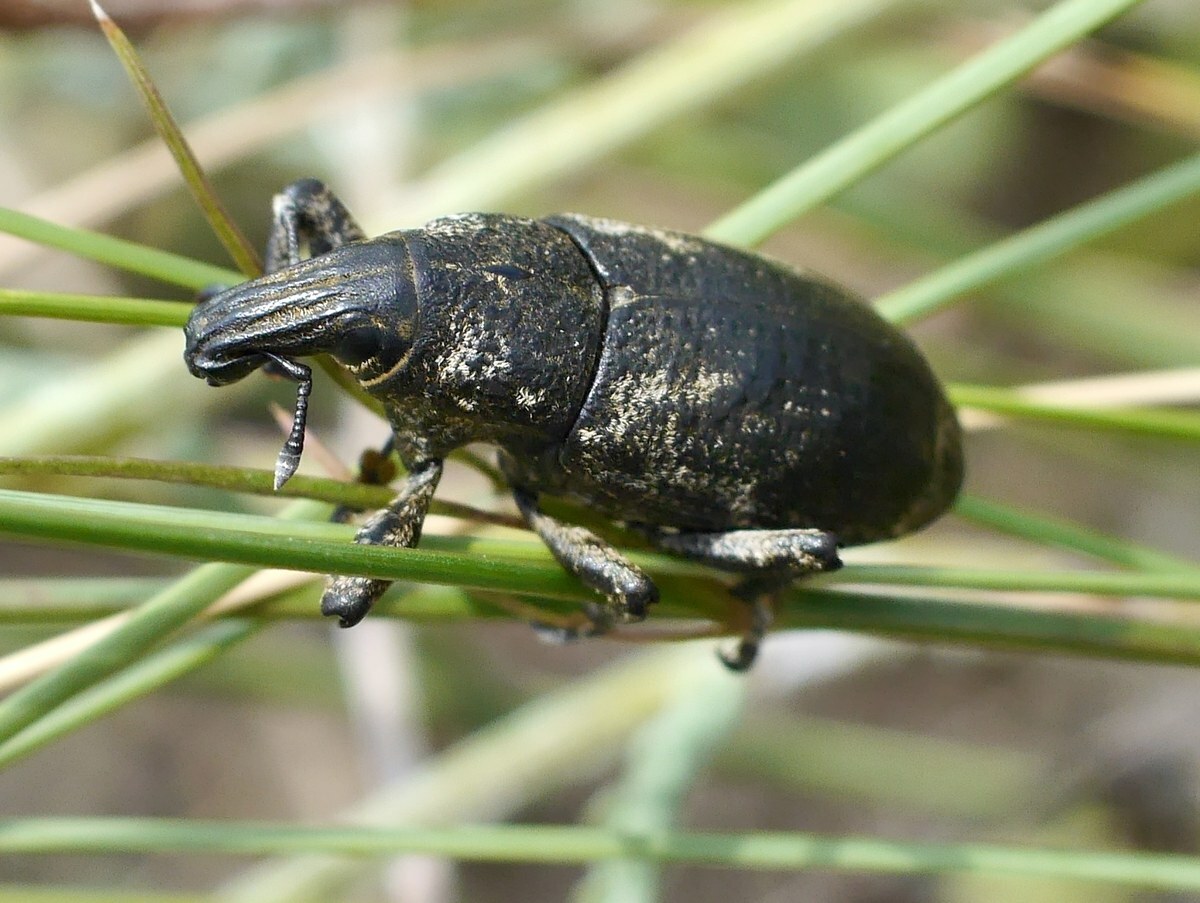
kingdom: Animalia
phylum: Arthropoda
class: Insecta
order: Coleoptera
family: Curculionidae
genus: Cleonis
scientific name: Cleonis pigra
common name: Large thistle weevil
